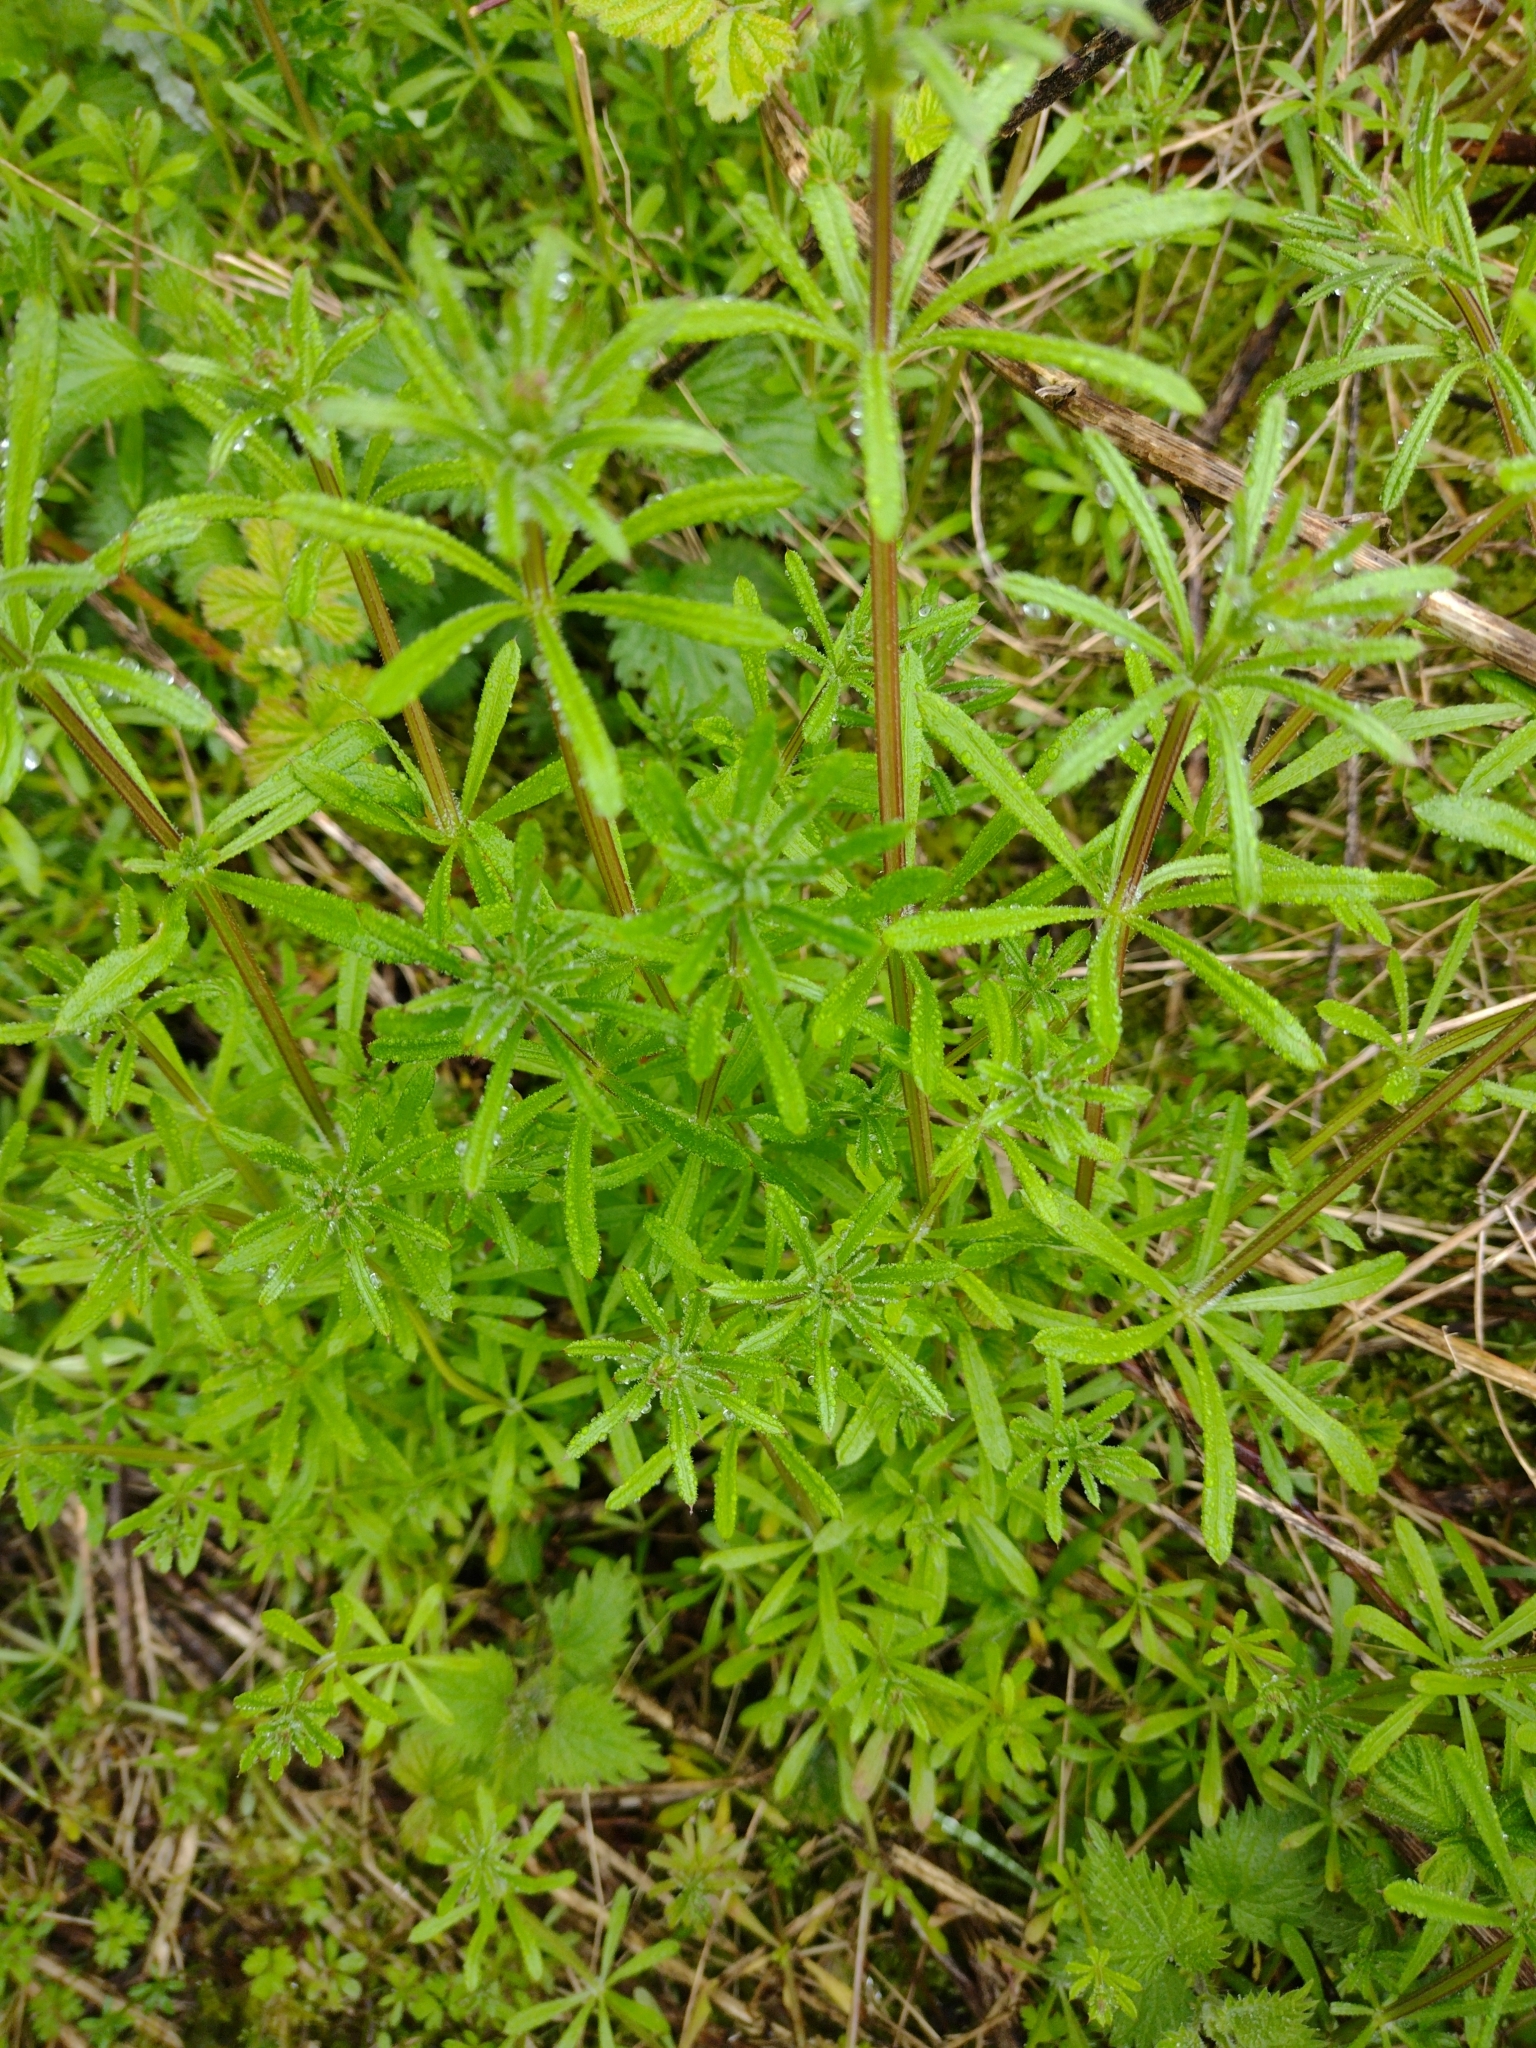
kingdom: Plantae
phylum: Tracheophyta
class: Magnoliopsida
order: Gentianales
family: Rubiaceae
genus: Galium
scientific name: Galium aparine
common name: Cleavers
